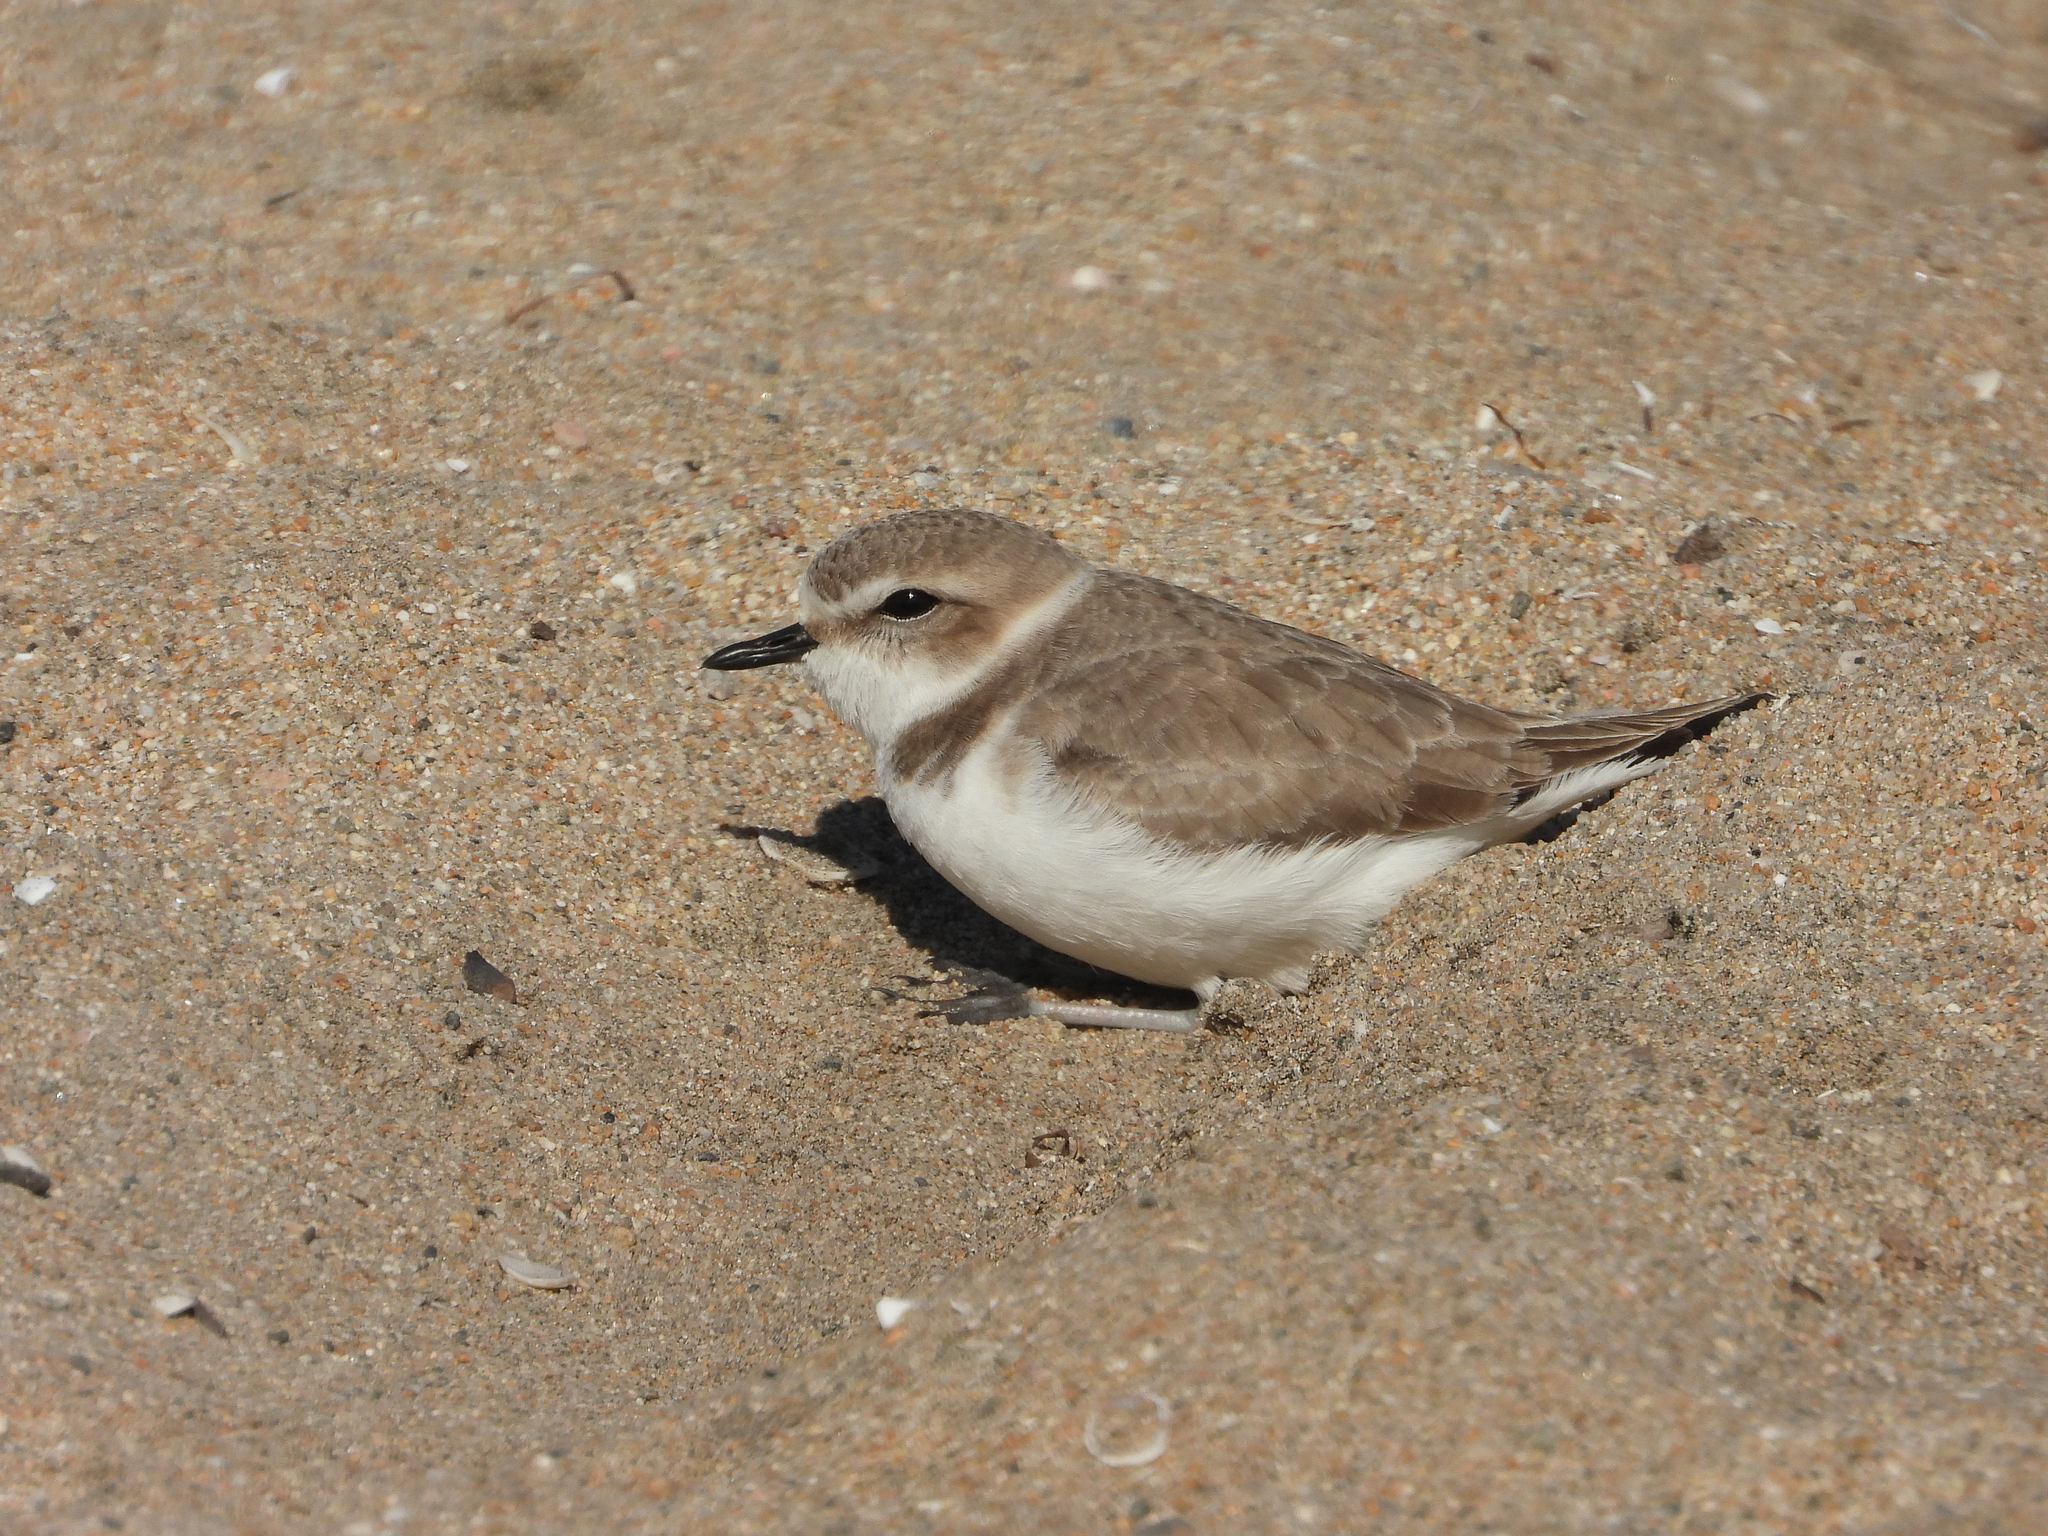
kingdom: Animalia
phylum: Chordata
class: Aves
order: Charadriiformes
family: Charadriidae
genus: Anarhynchus
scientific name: Anarhynchus
